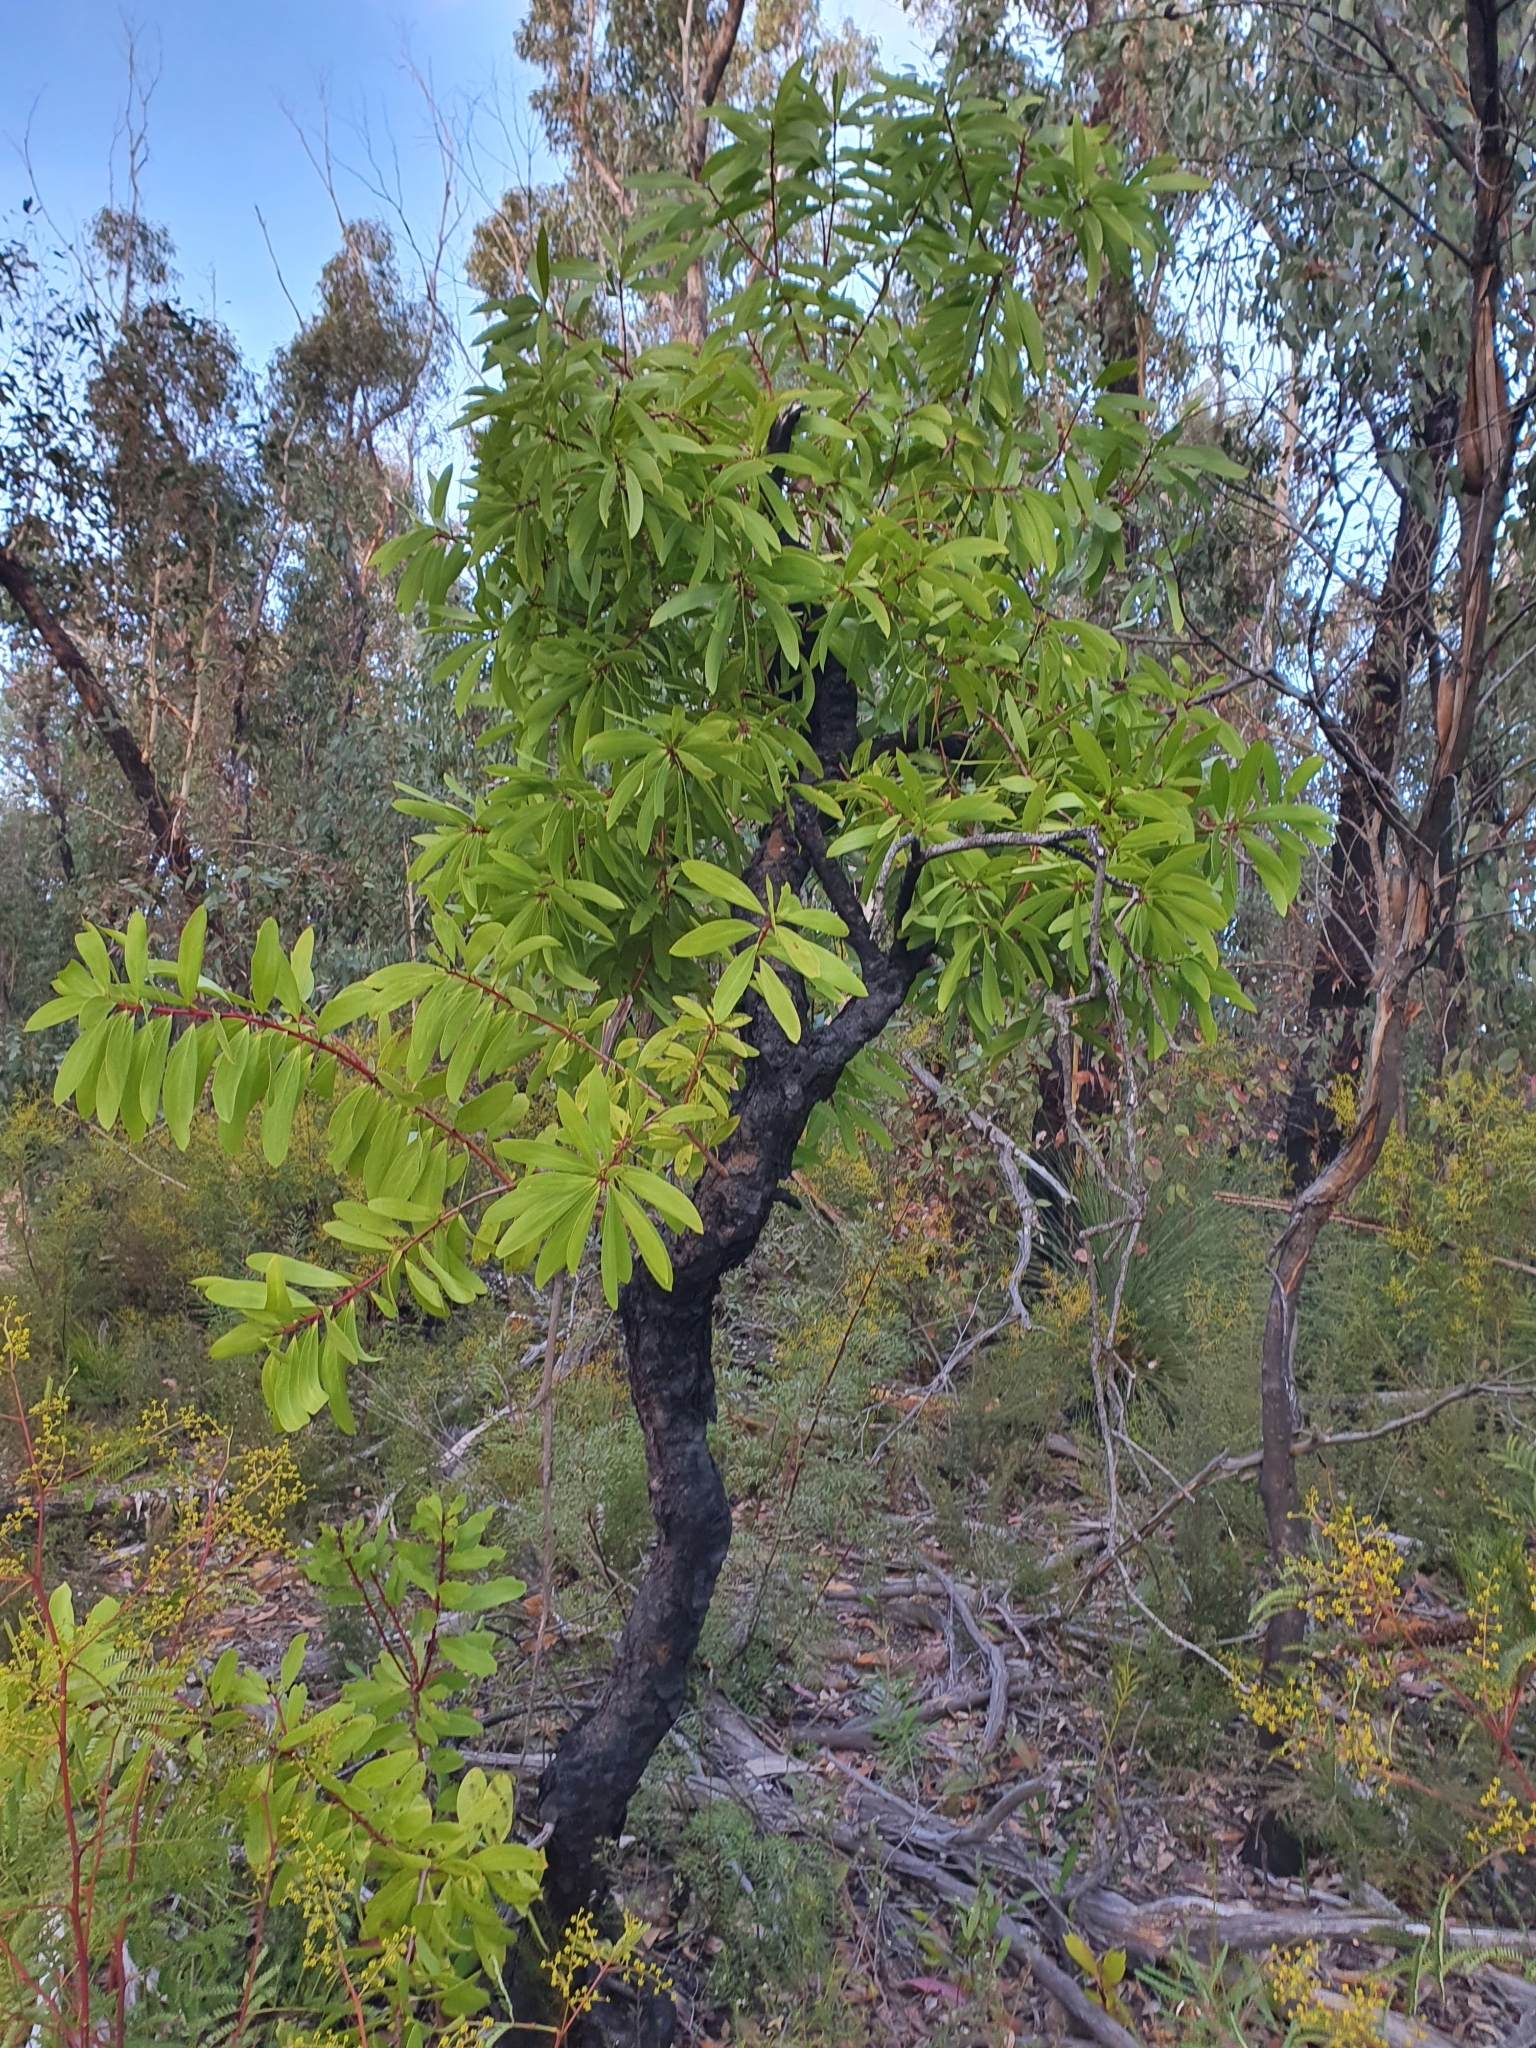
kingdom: Plantae
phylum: Tracheophyta
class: Magnoliopsida
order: Proteales
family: Proteaceae
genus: Persoonia
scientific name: Persoonia levis
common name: Smooth geebung
